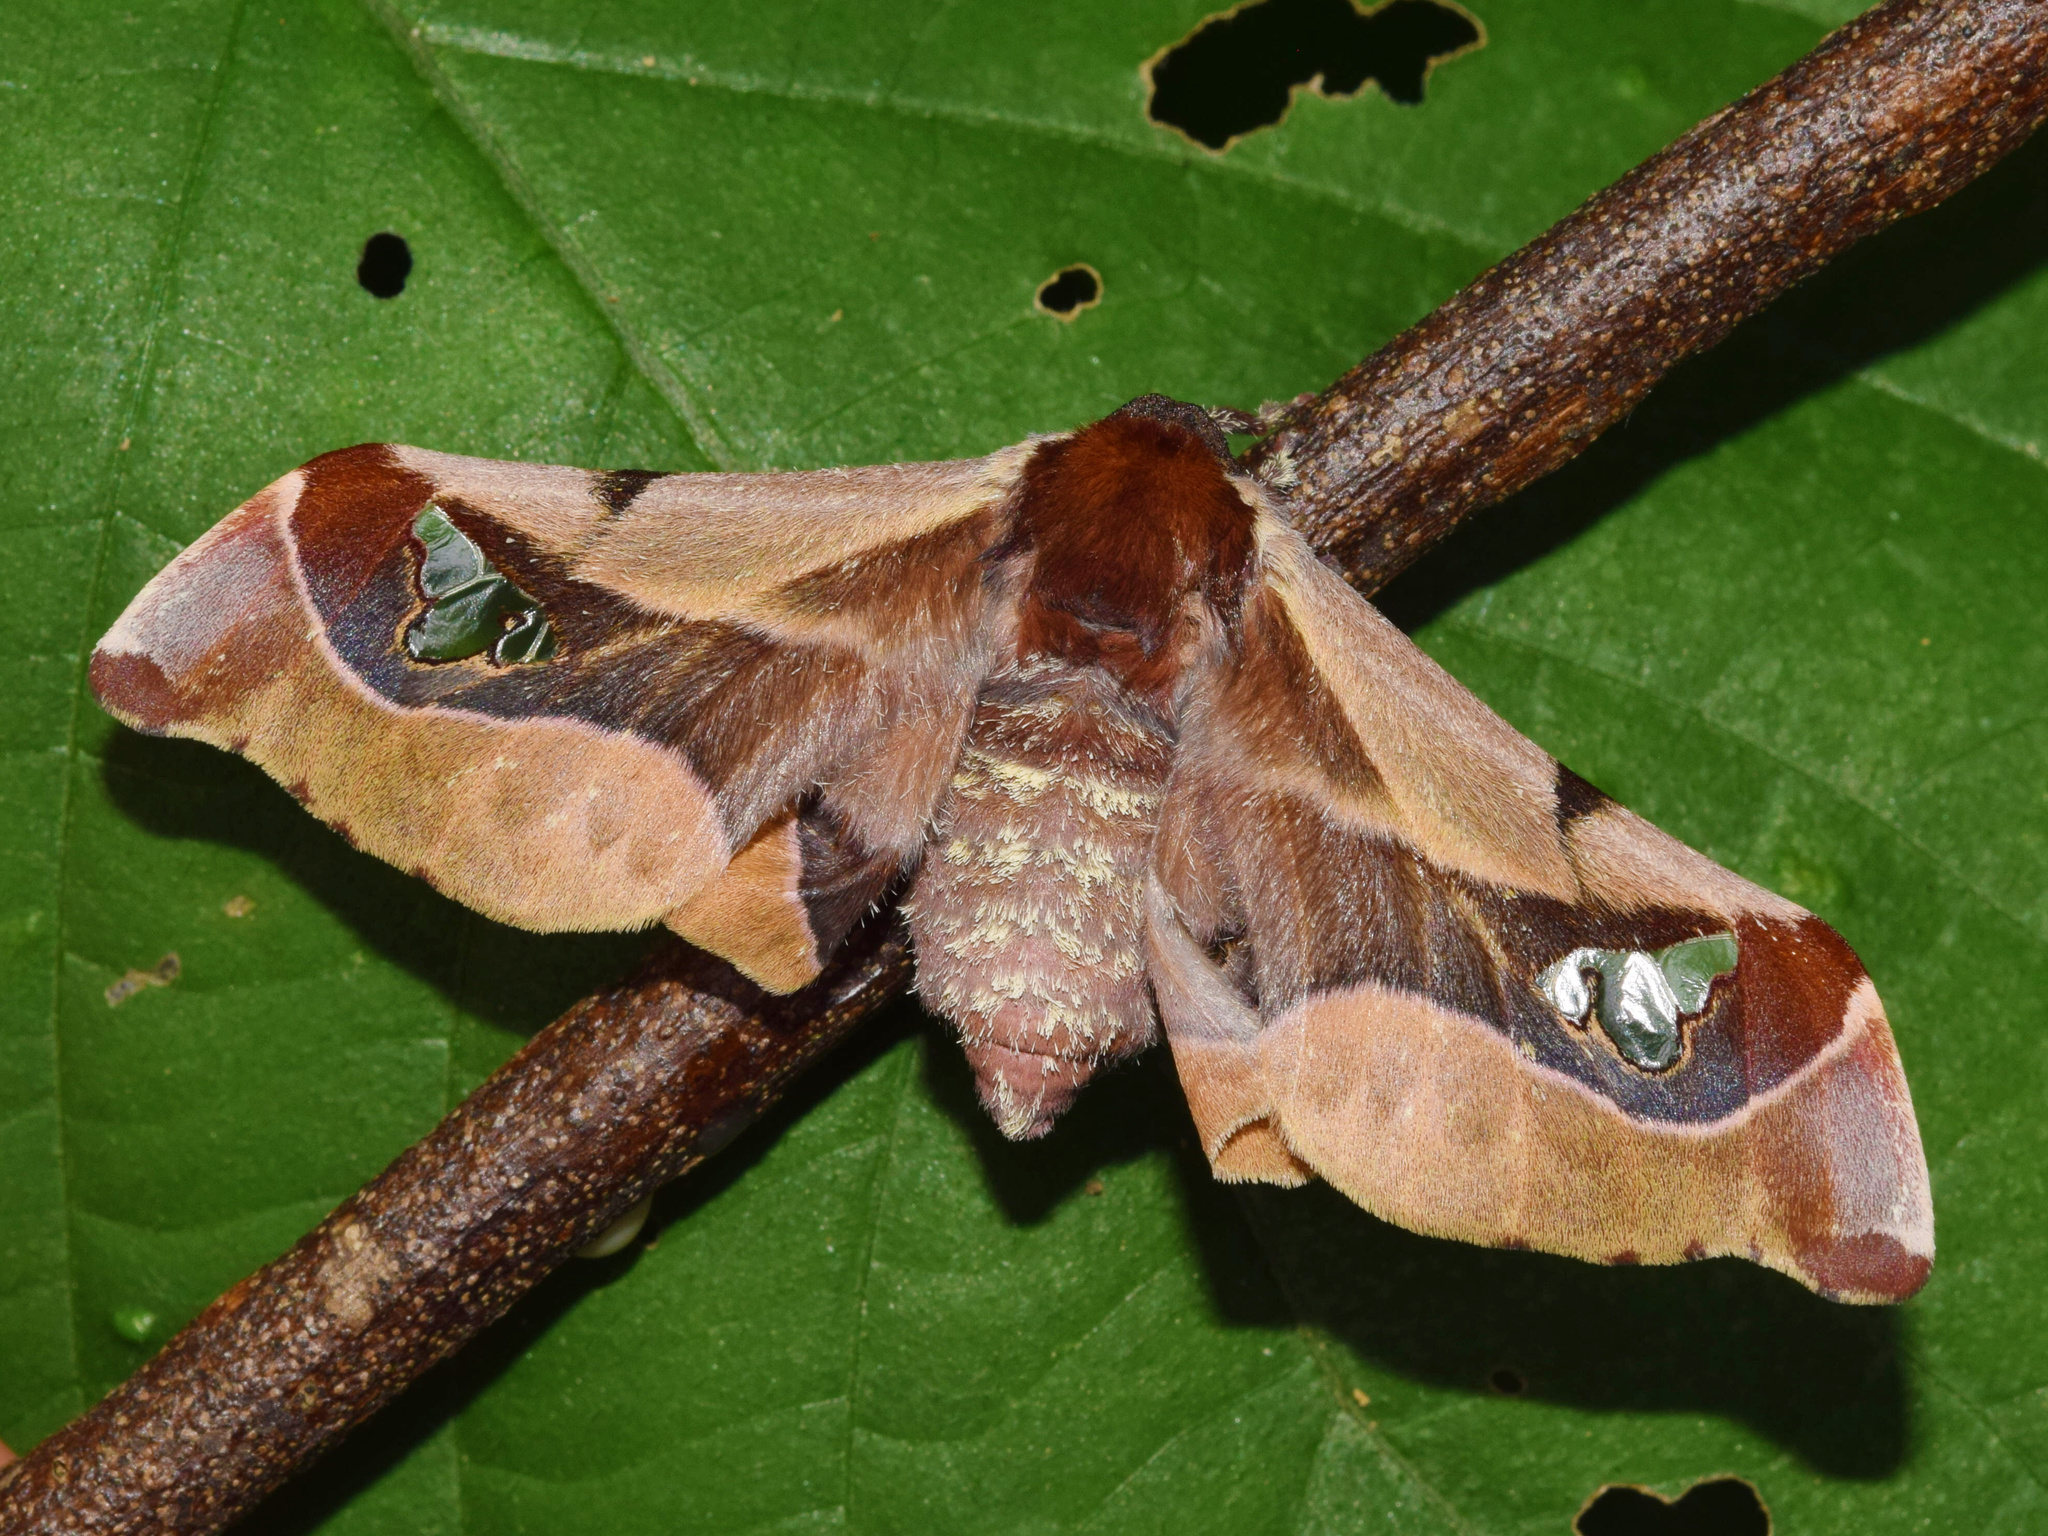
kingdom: Animalia
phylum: Arthropoda
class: Insecta
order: Lepidoptera
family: Saturniidae
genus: Holocerina
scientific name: Holocerina smilax
